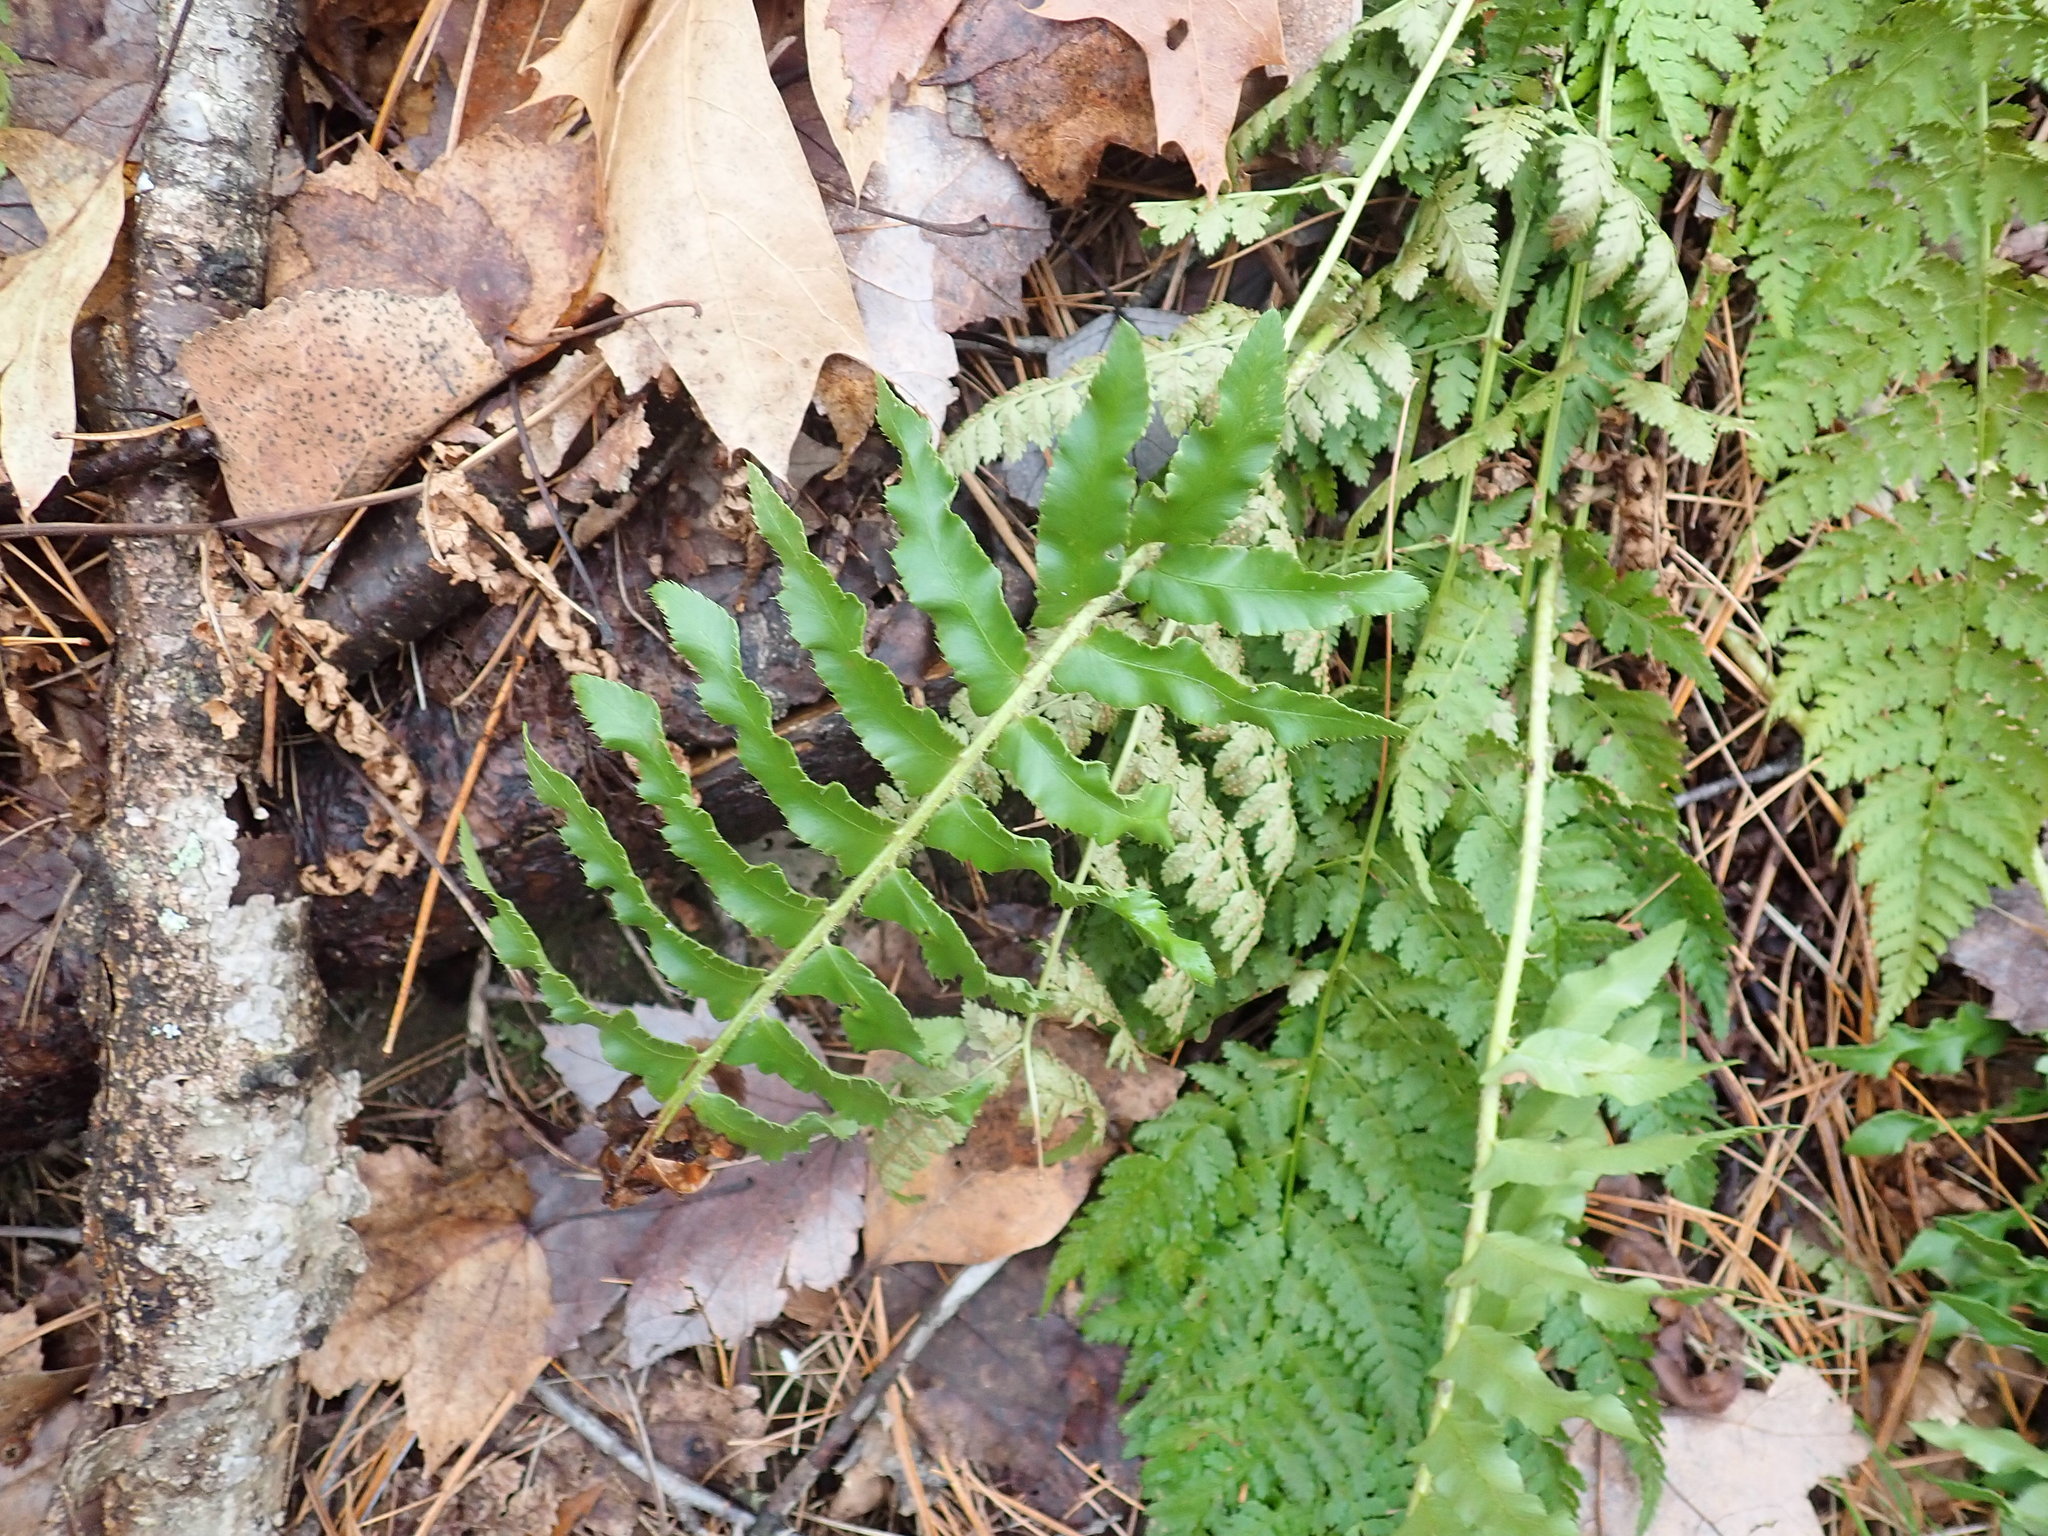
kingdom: Plantae
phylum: Tracheophyta
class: Polypodiopsida
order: Polypodiales
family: Dryopteridaceae
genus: Polystichum
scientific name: Polystichum acrostichoides
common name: Christmas fern
